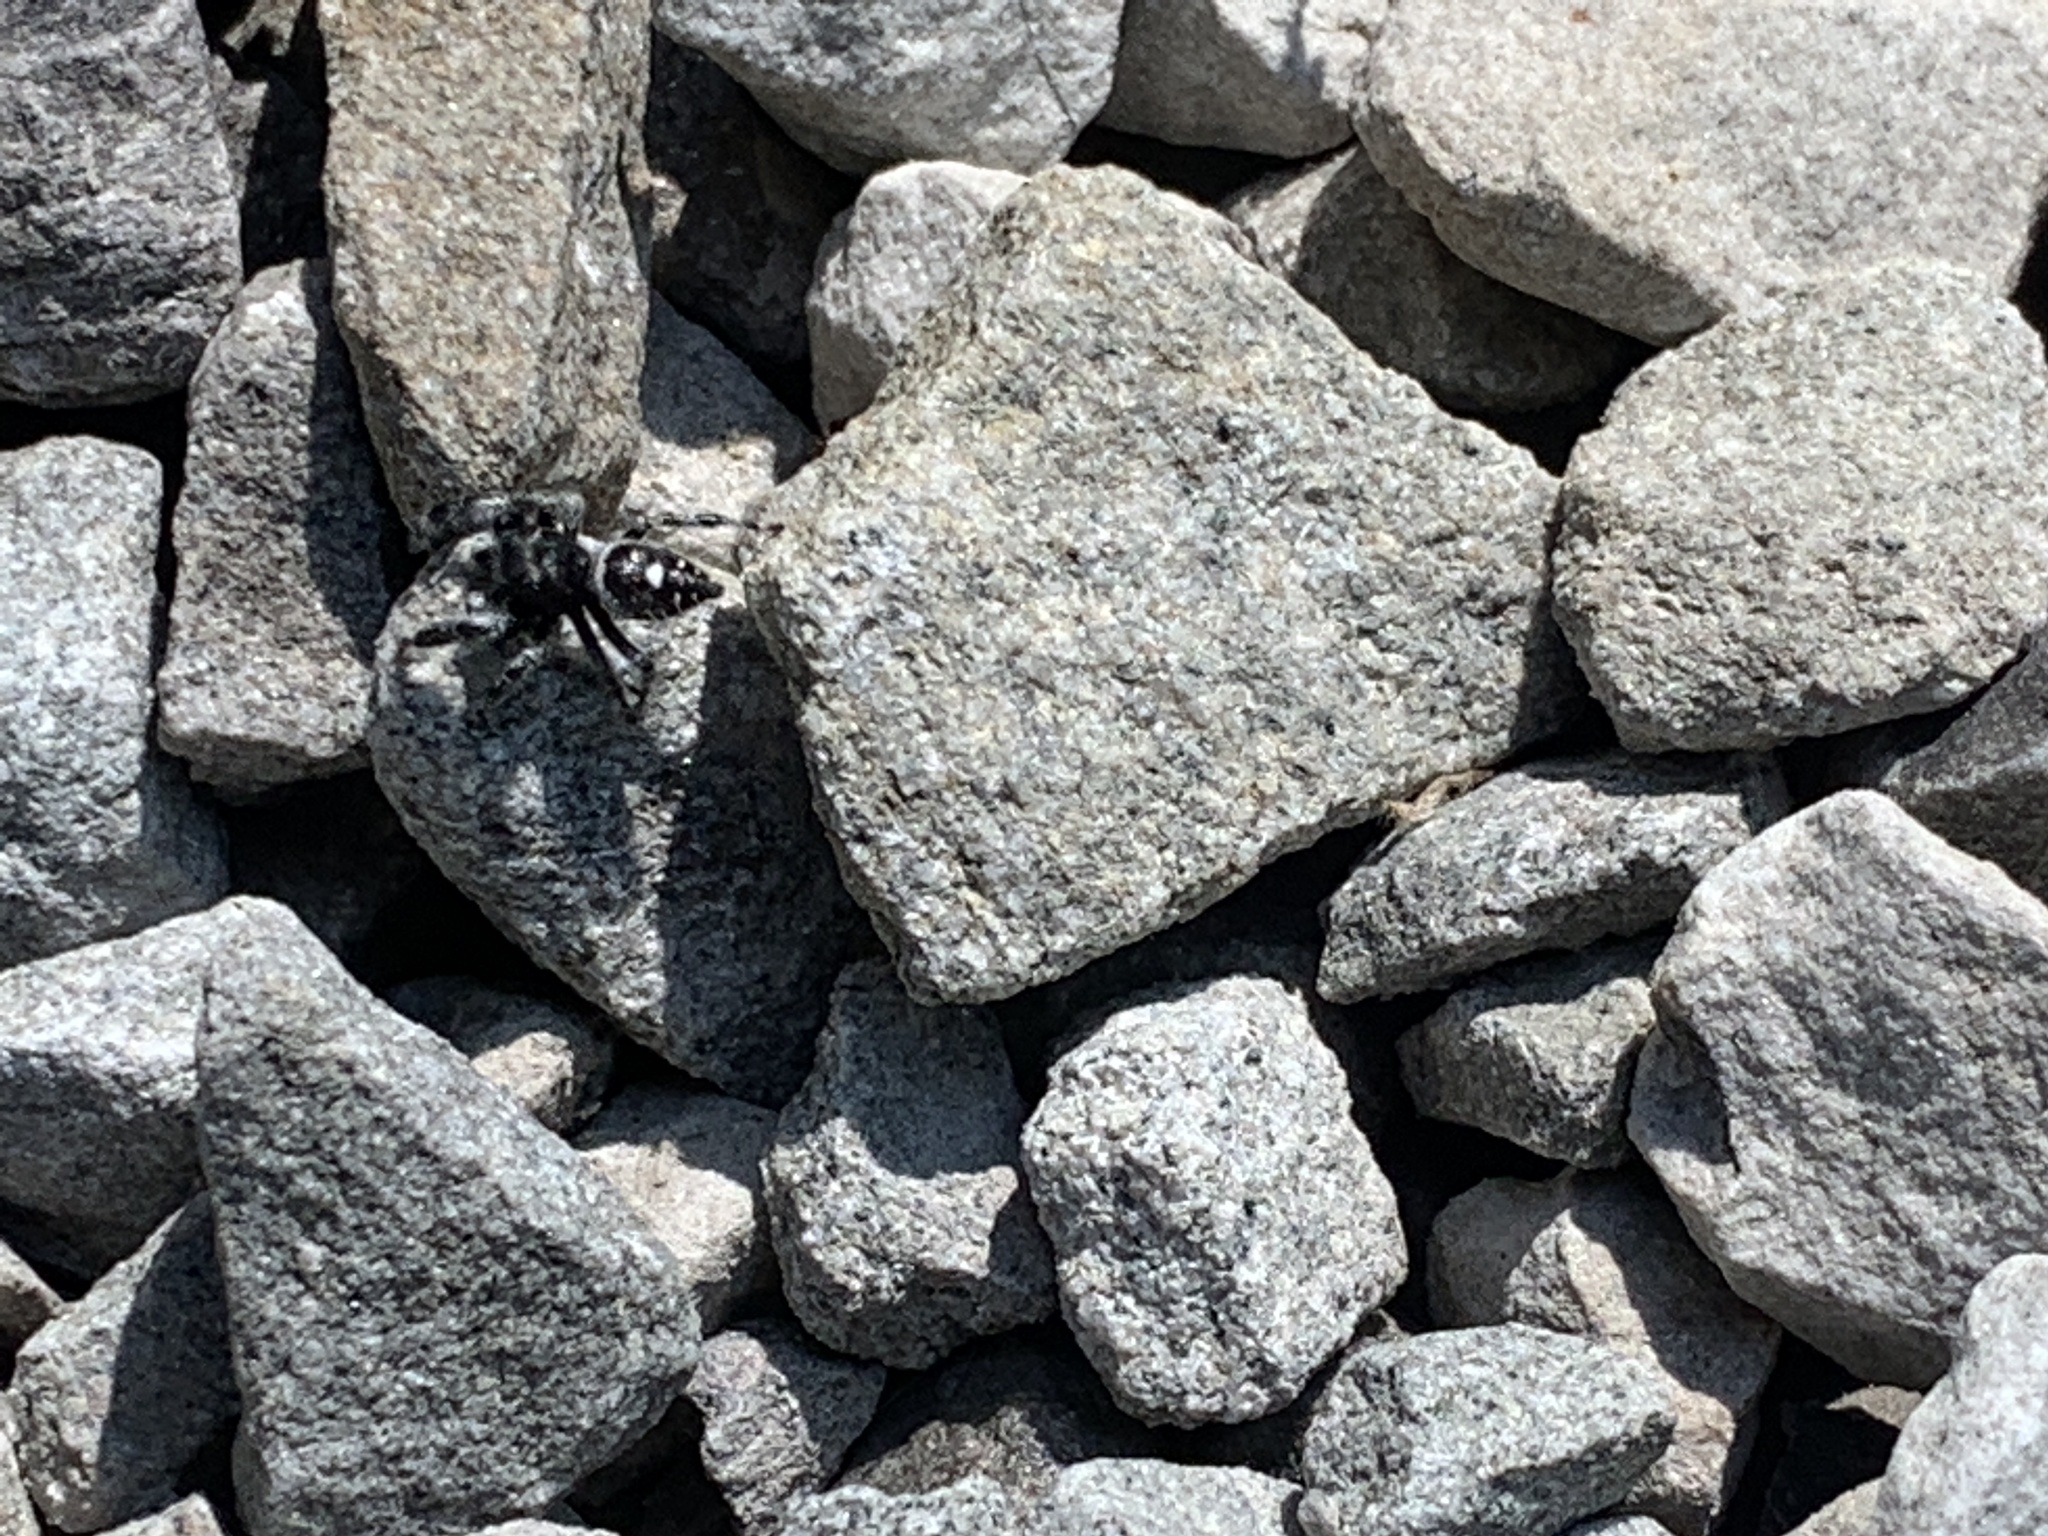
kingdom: Animalia
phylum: Arthropoda
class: Arachnida
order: Araneae
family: Salticidae
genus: Phidippus
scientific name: Phidippus audax
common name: Bold jumper
